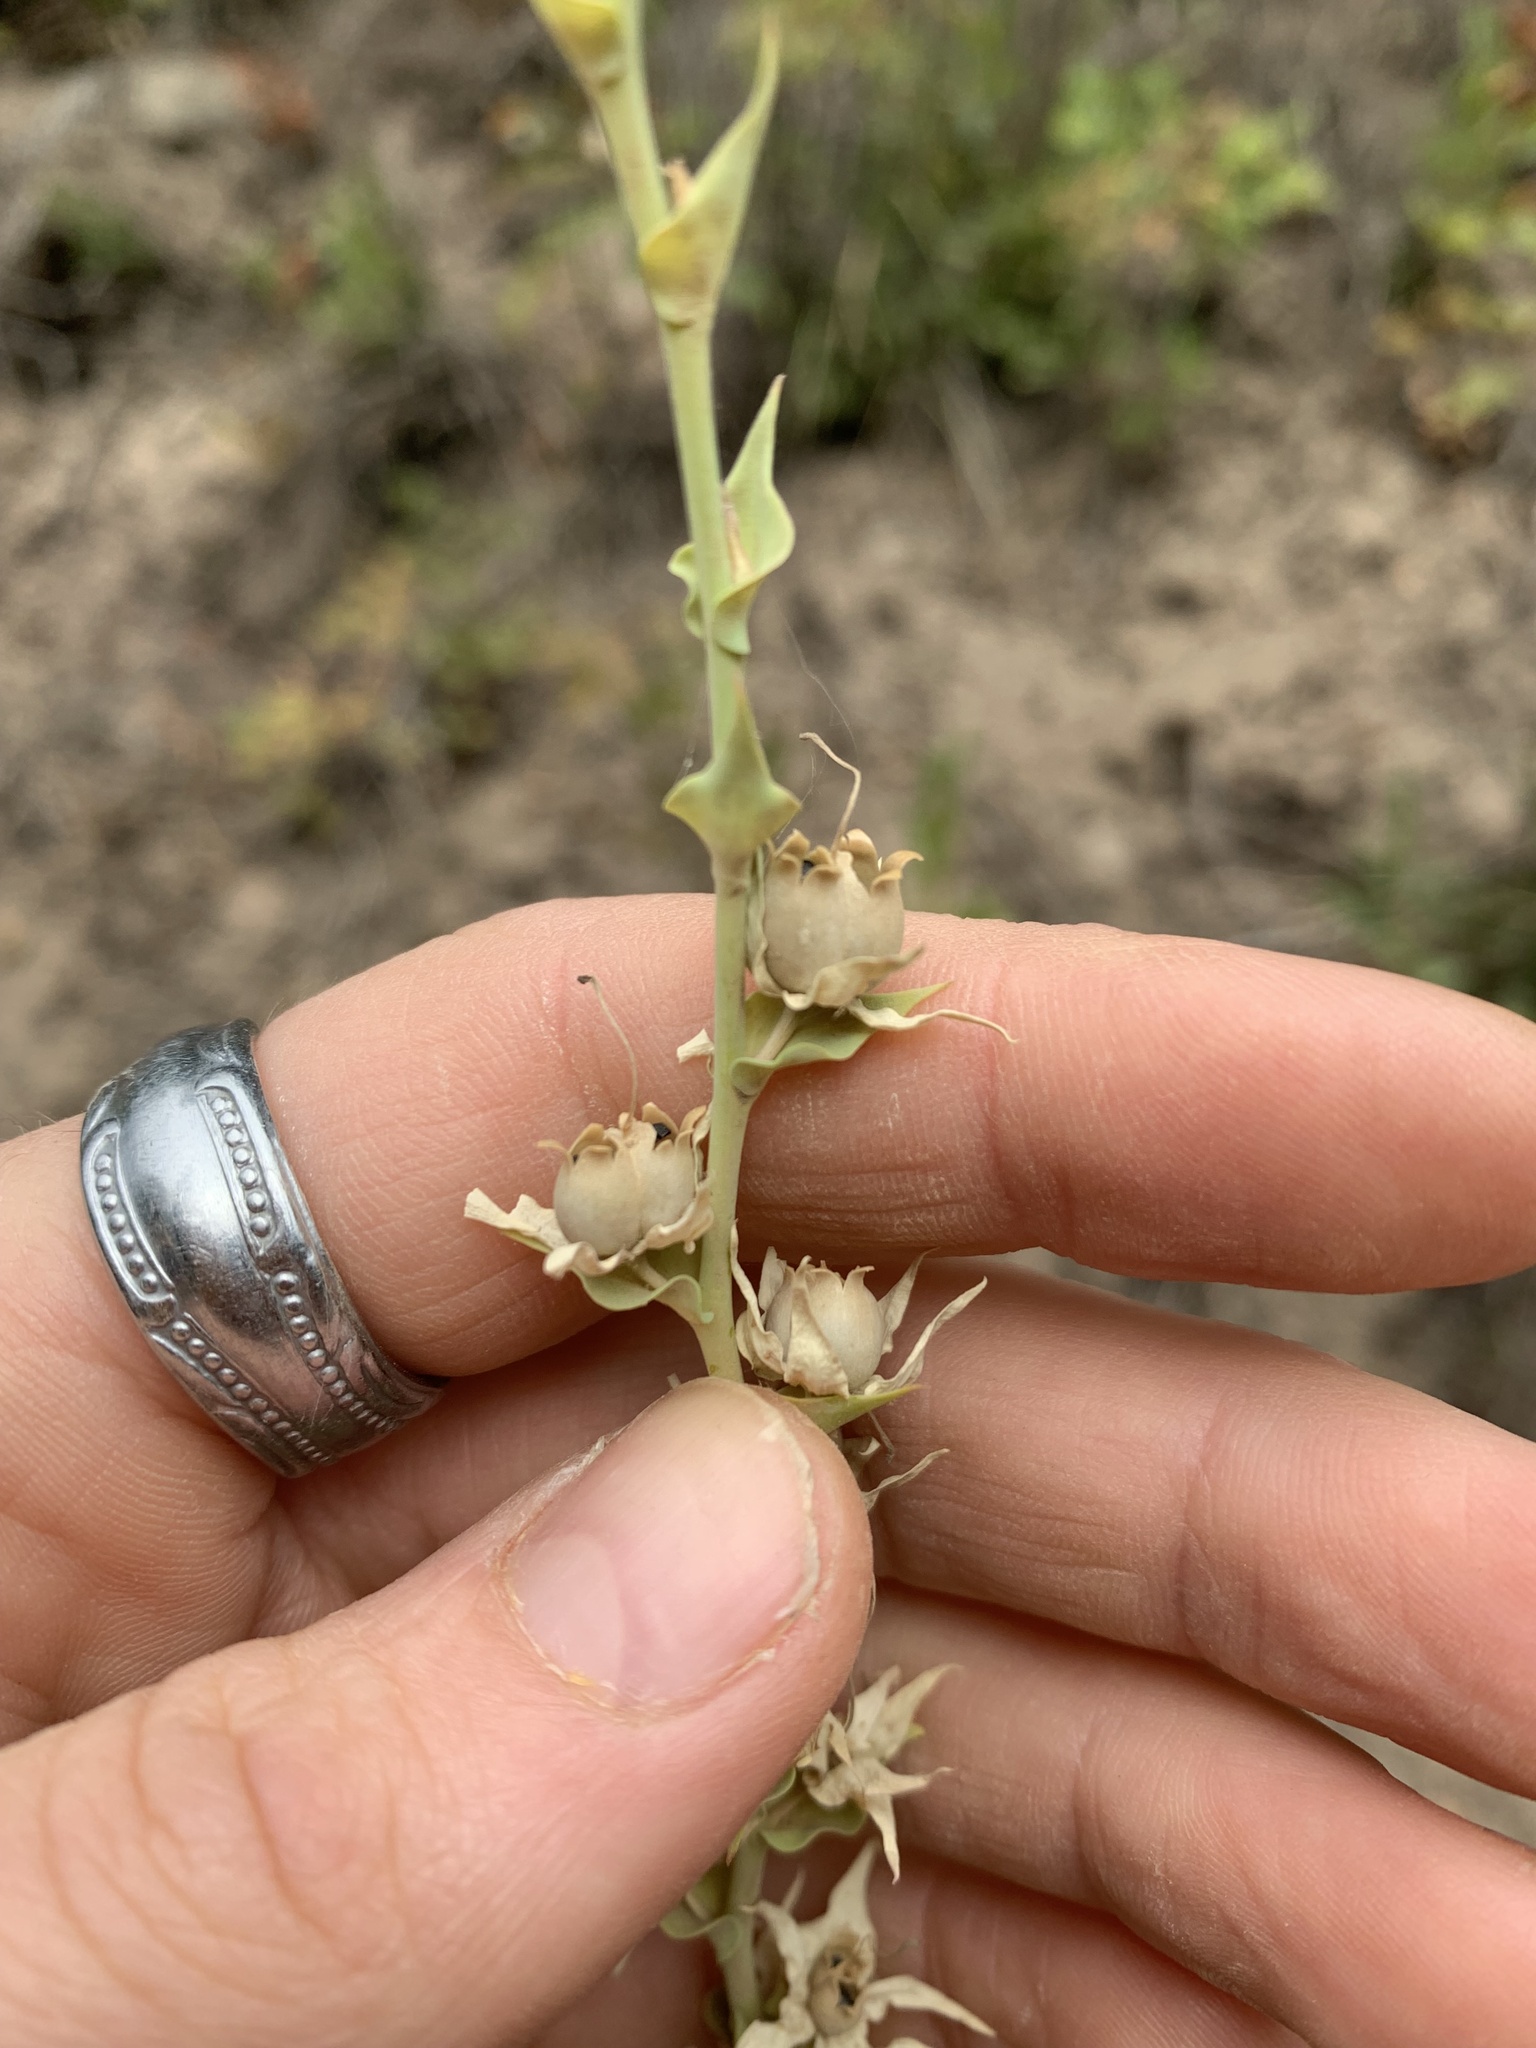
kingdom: Plantae
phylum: Tracheophyta
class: Magnoliopsida
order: Lamiales
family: Plantaginaceae
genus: Linaria
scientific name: Linaria dalmatica
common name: Dalmatian toadflax
